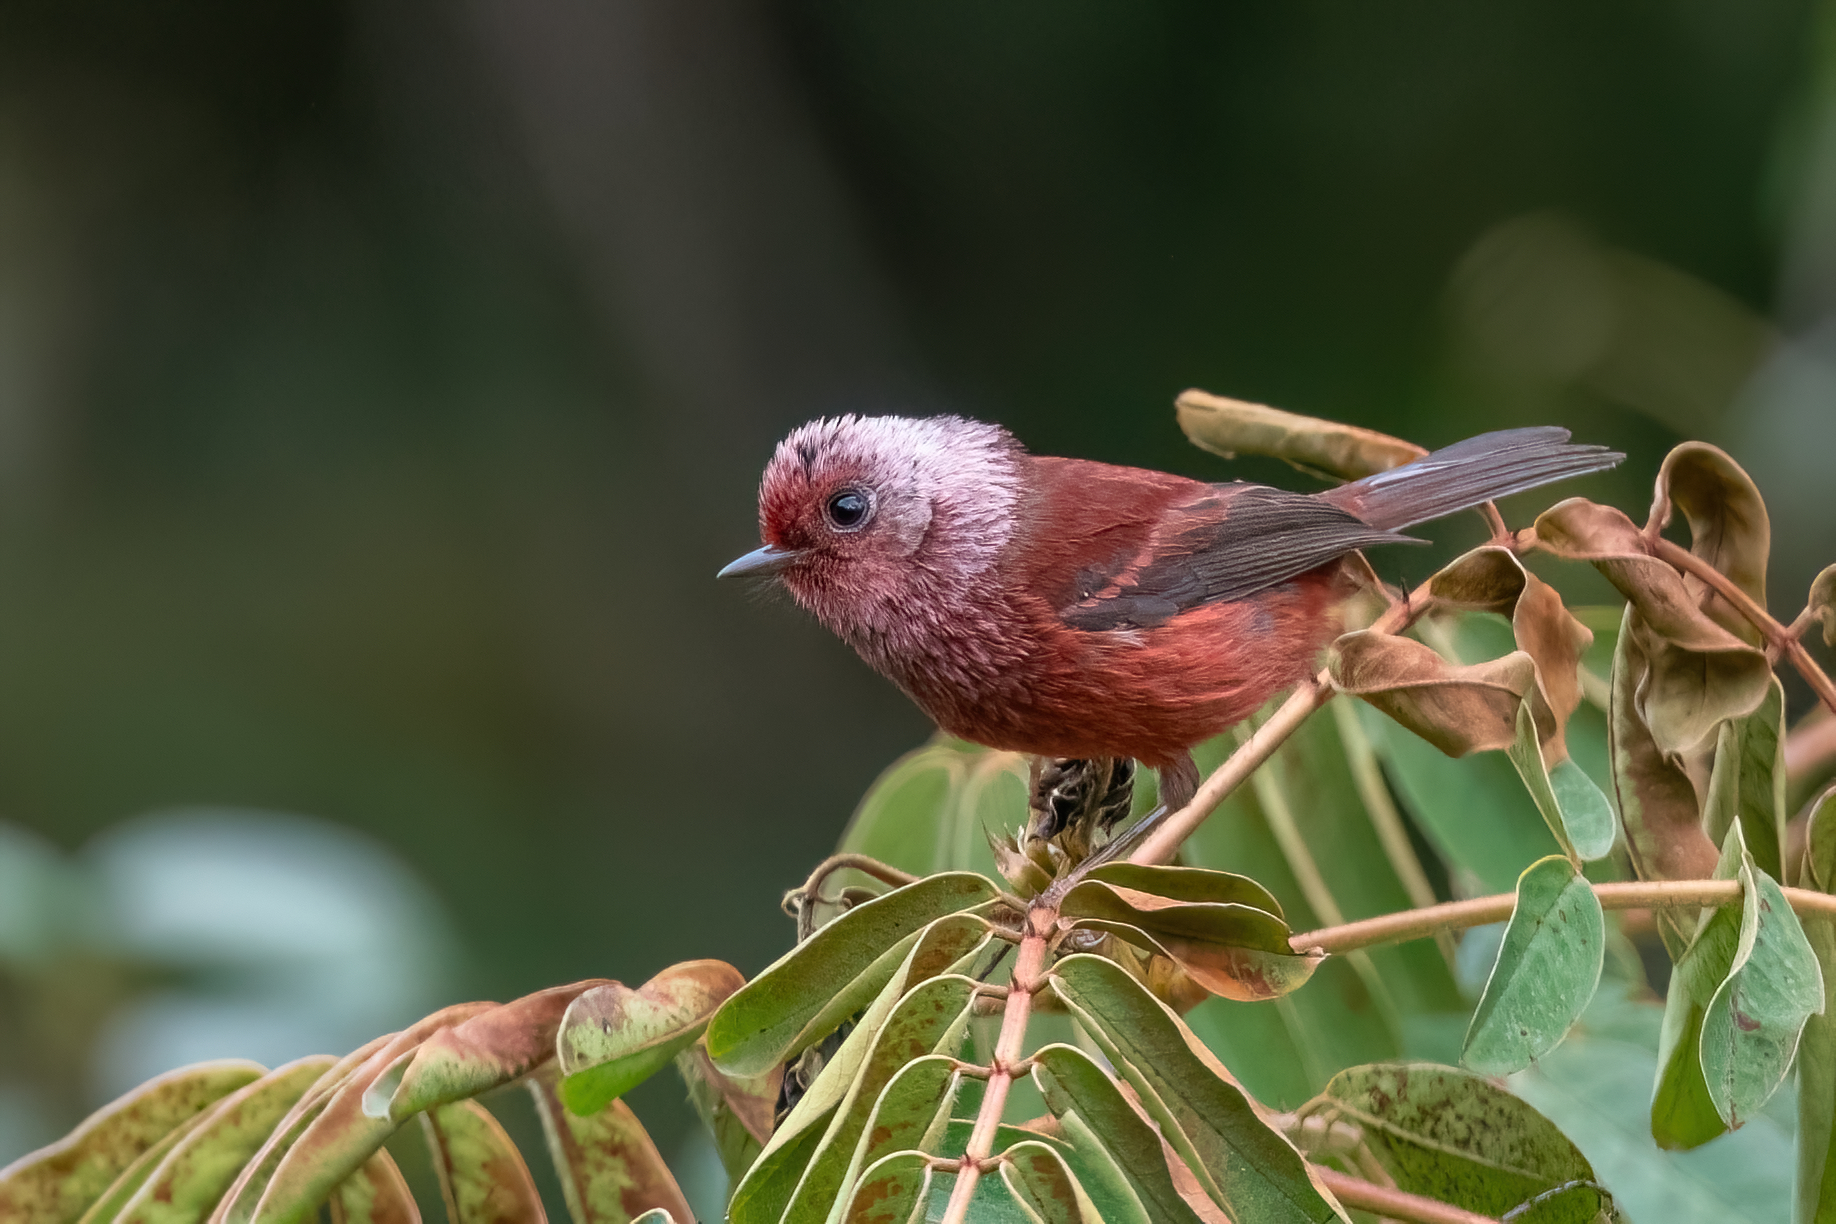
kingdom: Animalia
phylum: Chordata
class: Aves
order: Passeriformes
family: Parulidae
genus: Cardellina
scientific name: Cardellina versicolor
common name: Pink-headed warbler
